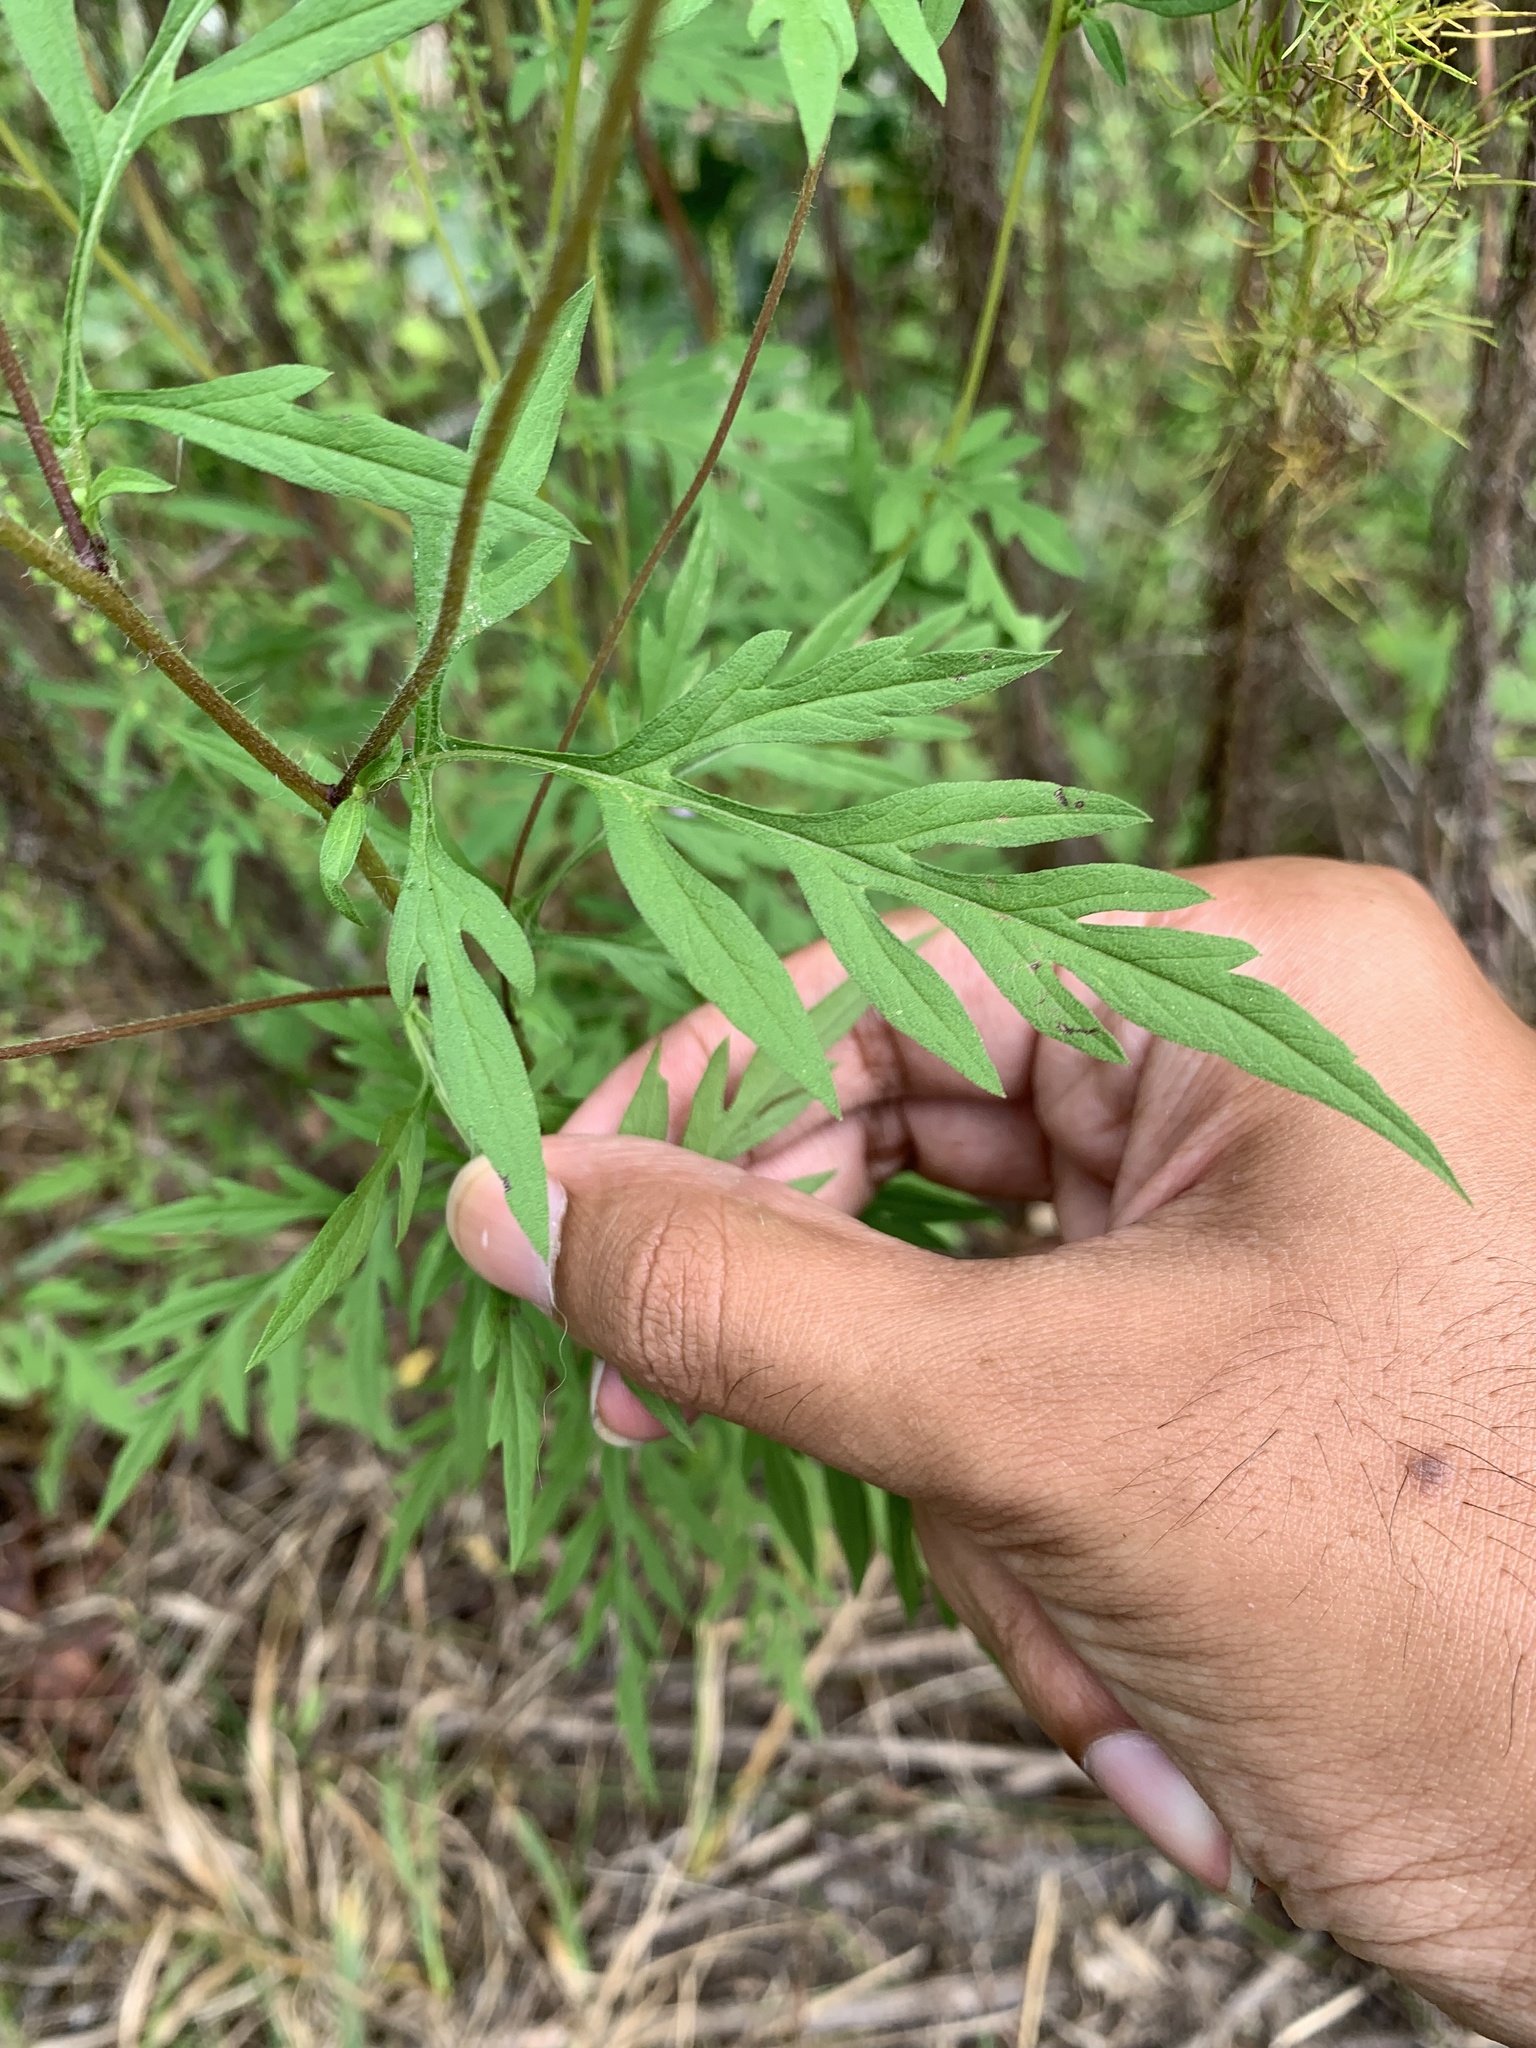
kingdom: Plantae
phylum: Tracheophyta
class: Magnoliopsida
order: Asterales
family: Asteraceae
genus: Ambrosia
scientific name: Ambrosia artemisiifolia
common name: Annual ragweed
